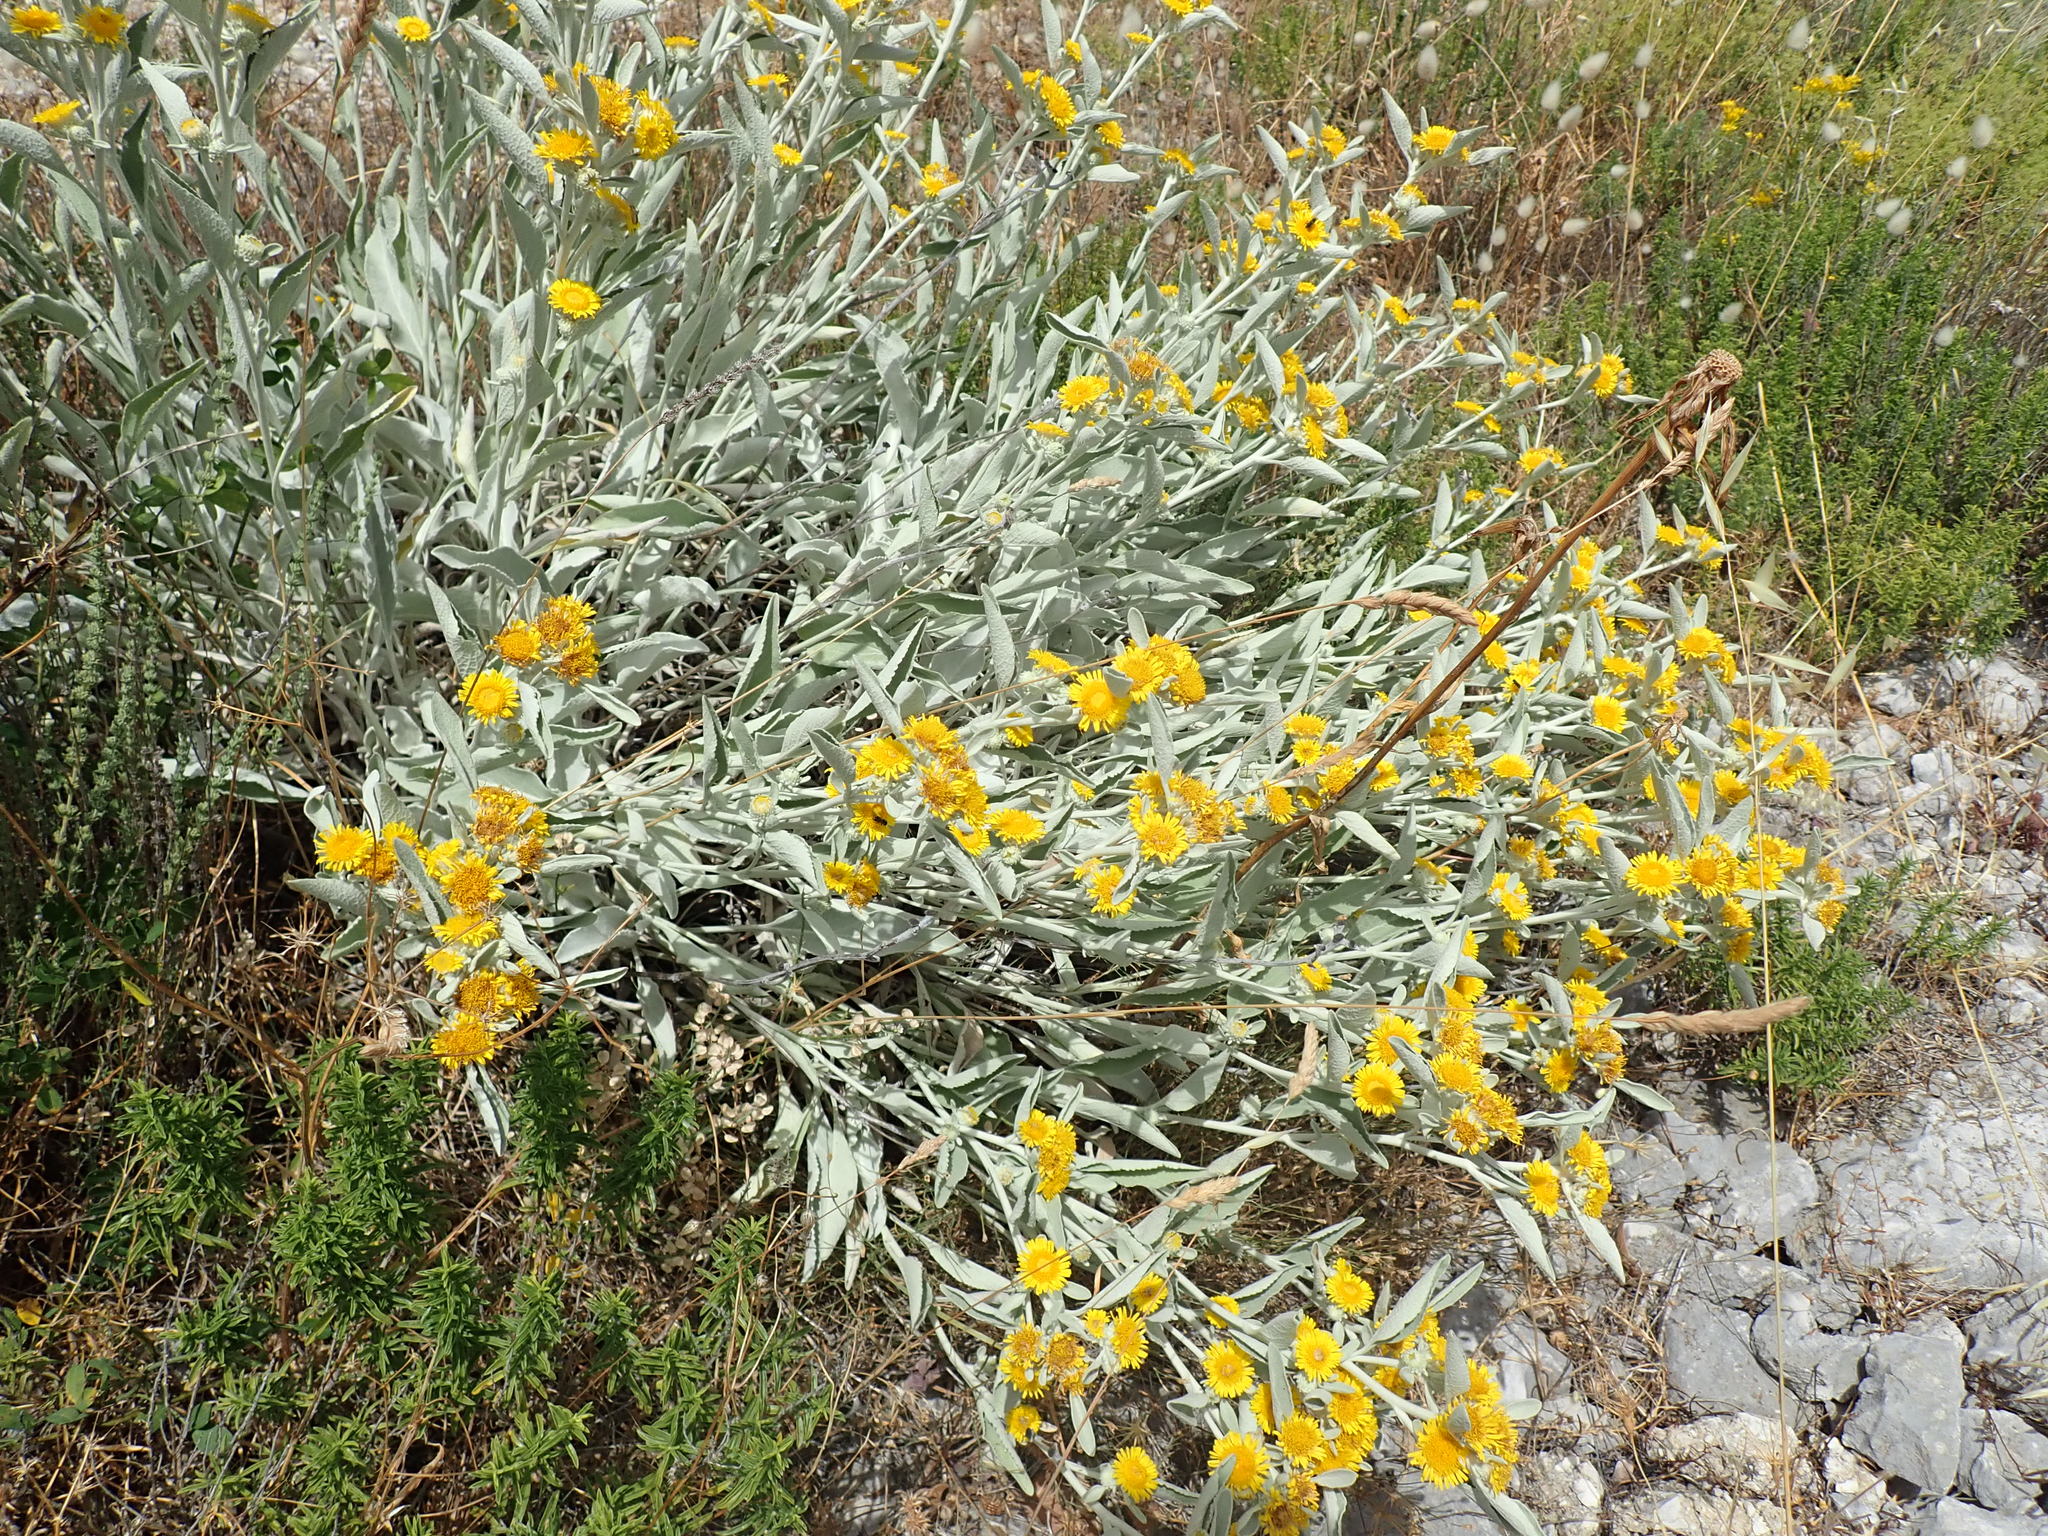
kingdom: Plantae
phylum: Tracheophyta
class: Magnoliopsida
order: Asterales
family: Asteraceae
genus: Pentanema
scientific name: Pentanema verbascifolium
